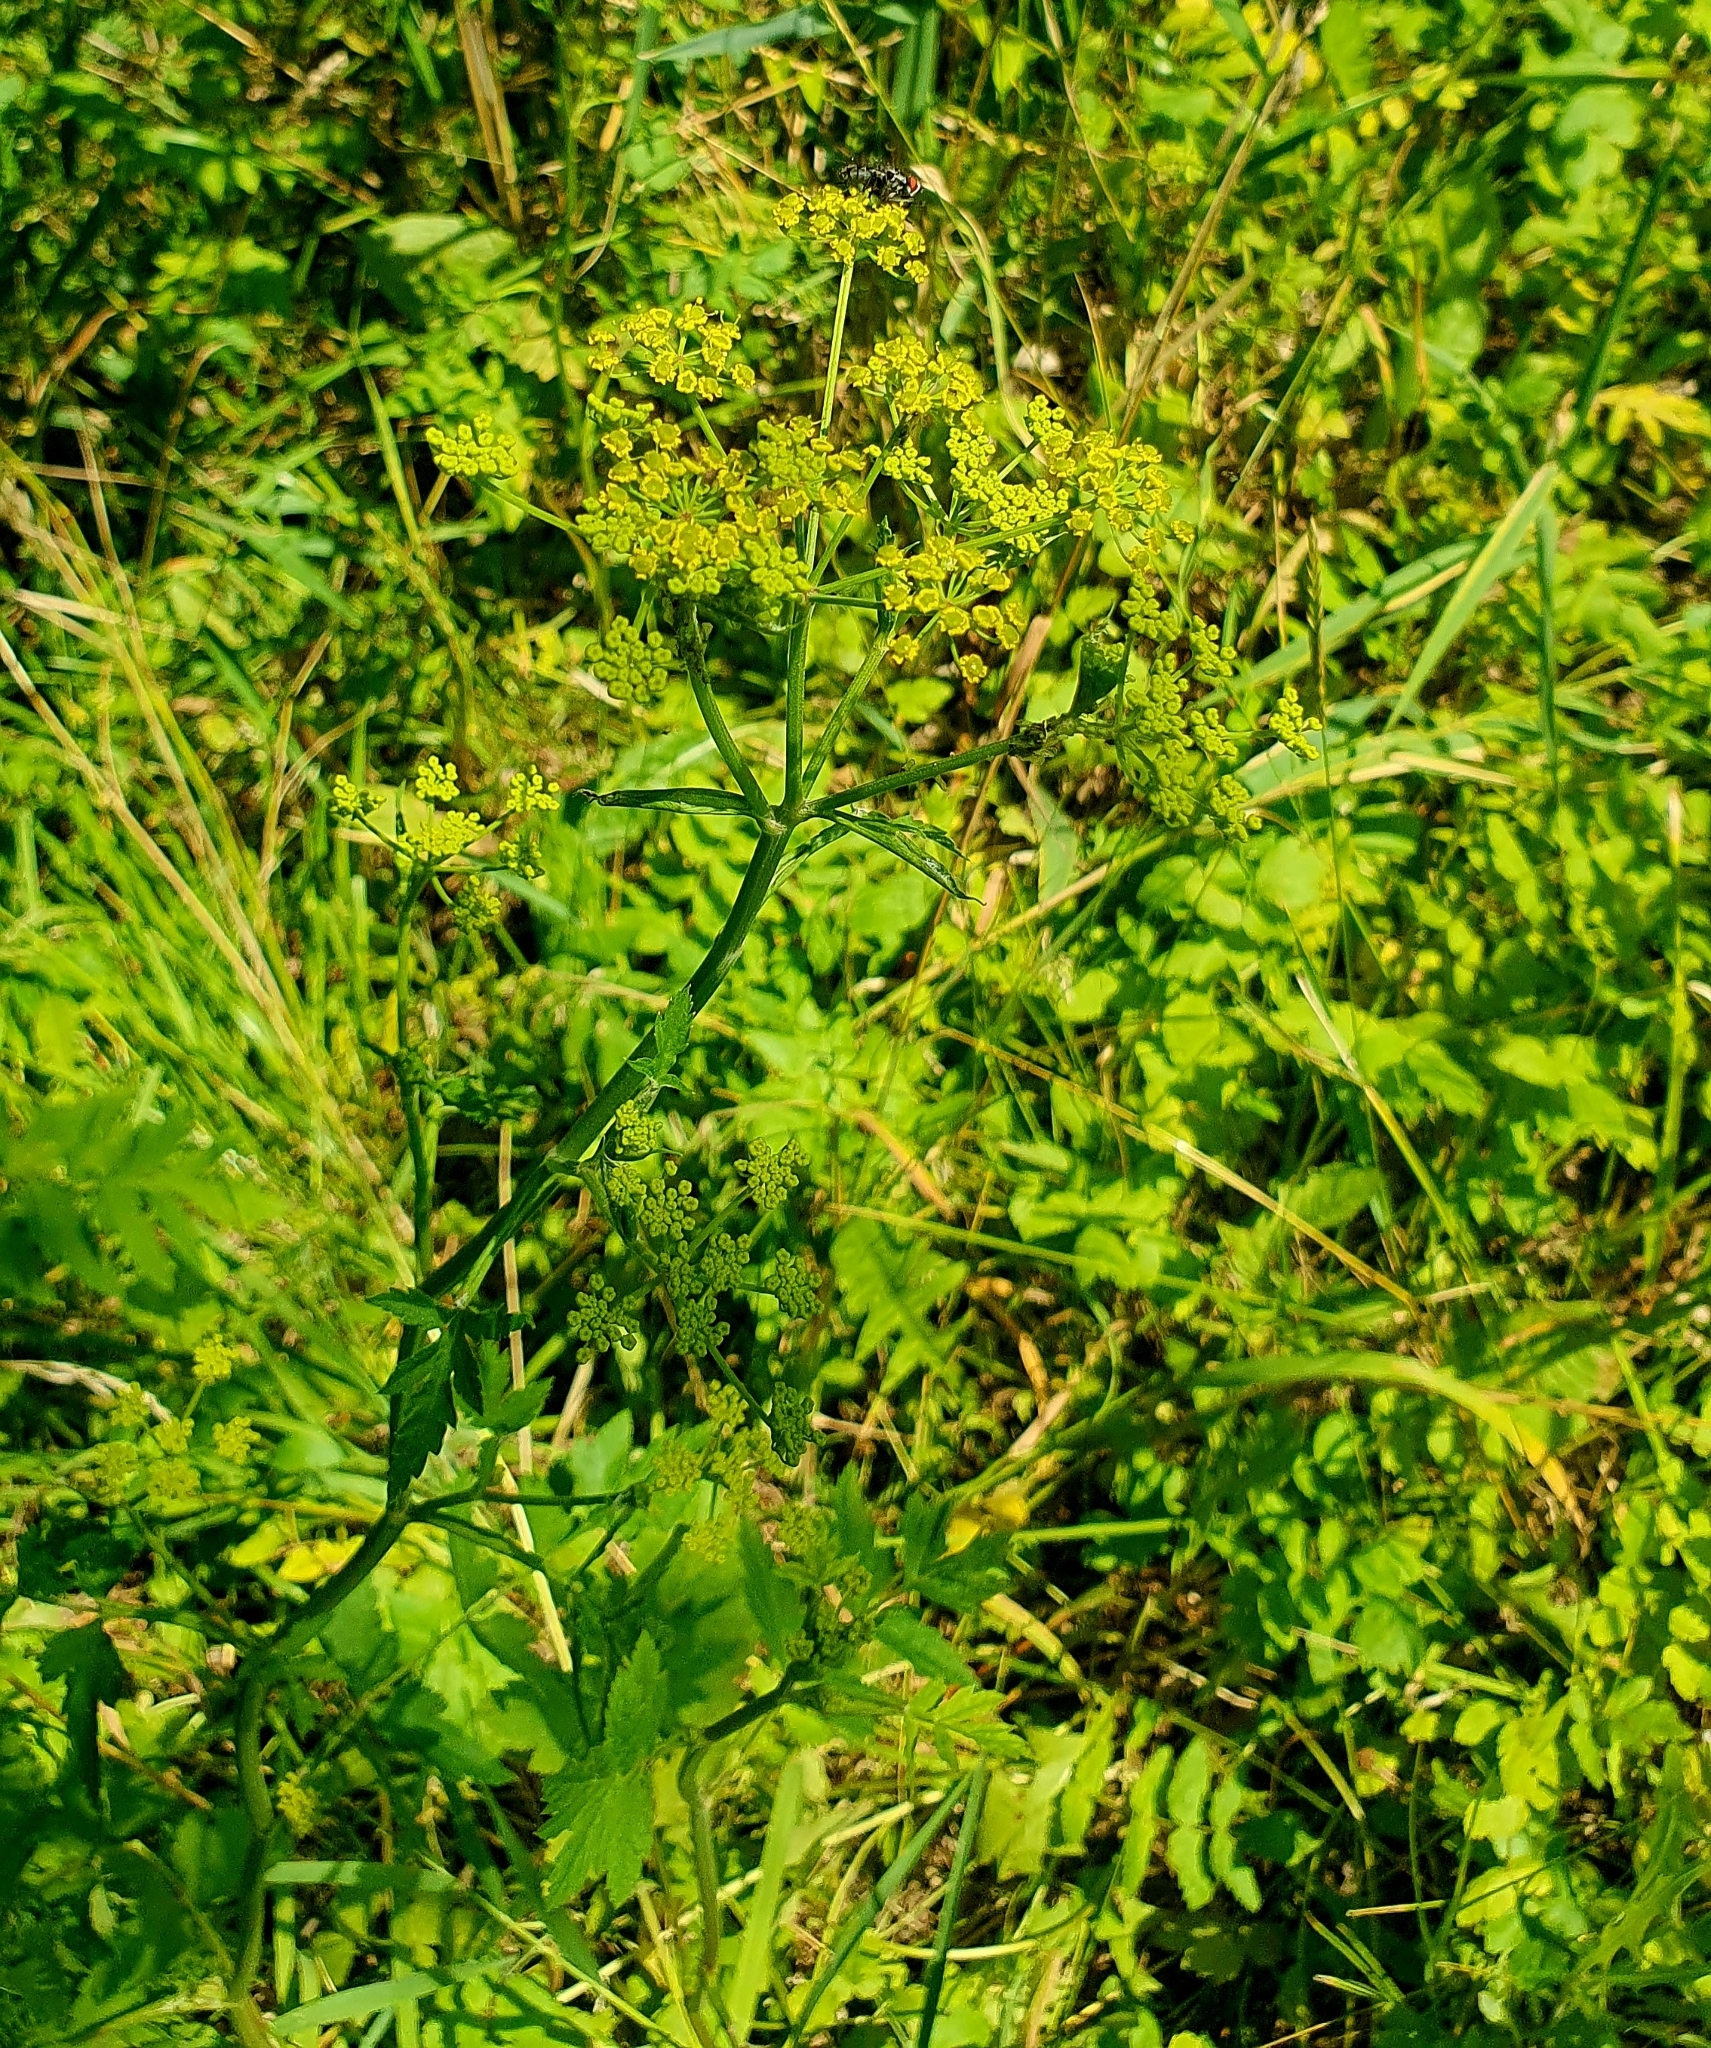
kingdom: Plantae
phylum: Tracheophyta
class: Magnoliopsida
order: Apiales
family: Apiaceae
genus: Pastinaca
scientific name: Pastinaca sativa
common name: Wild parsnip
